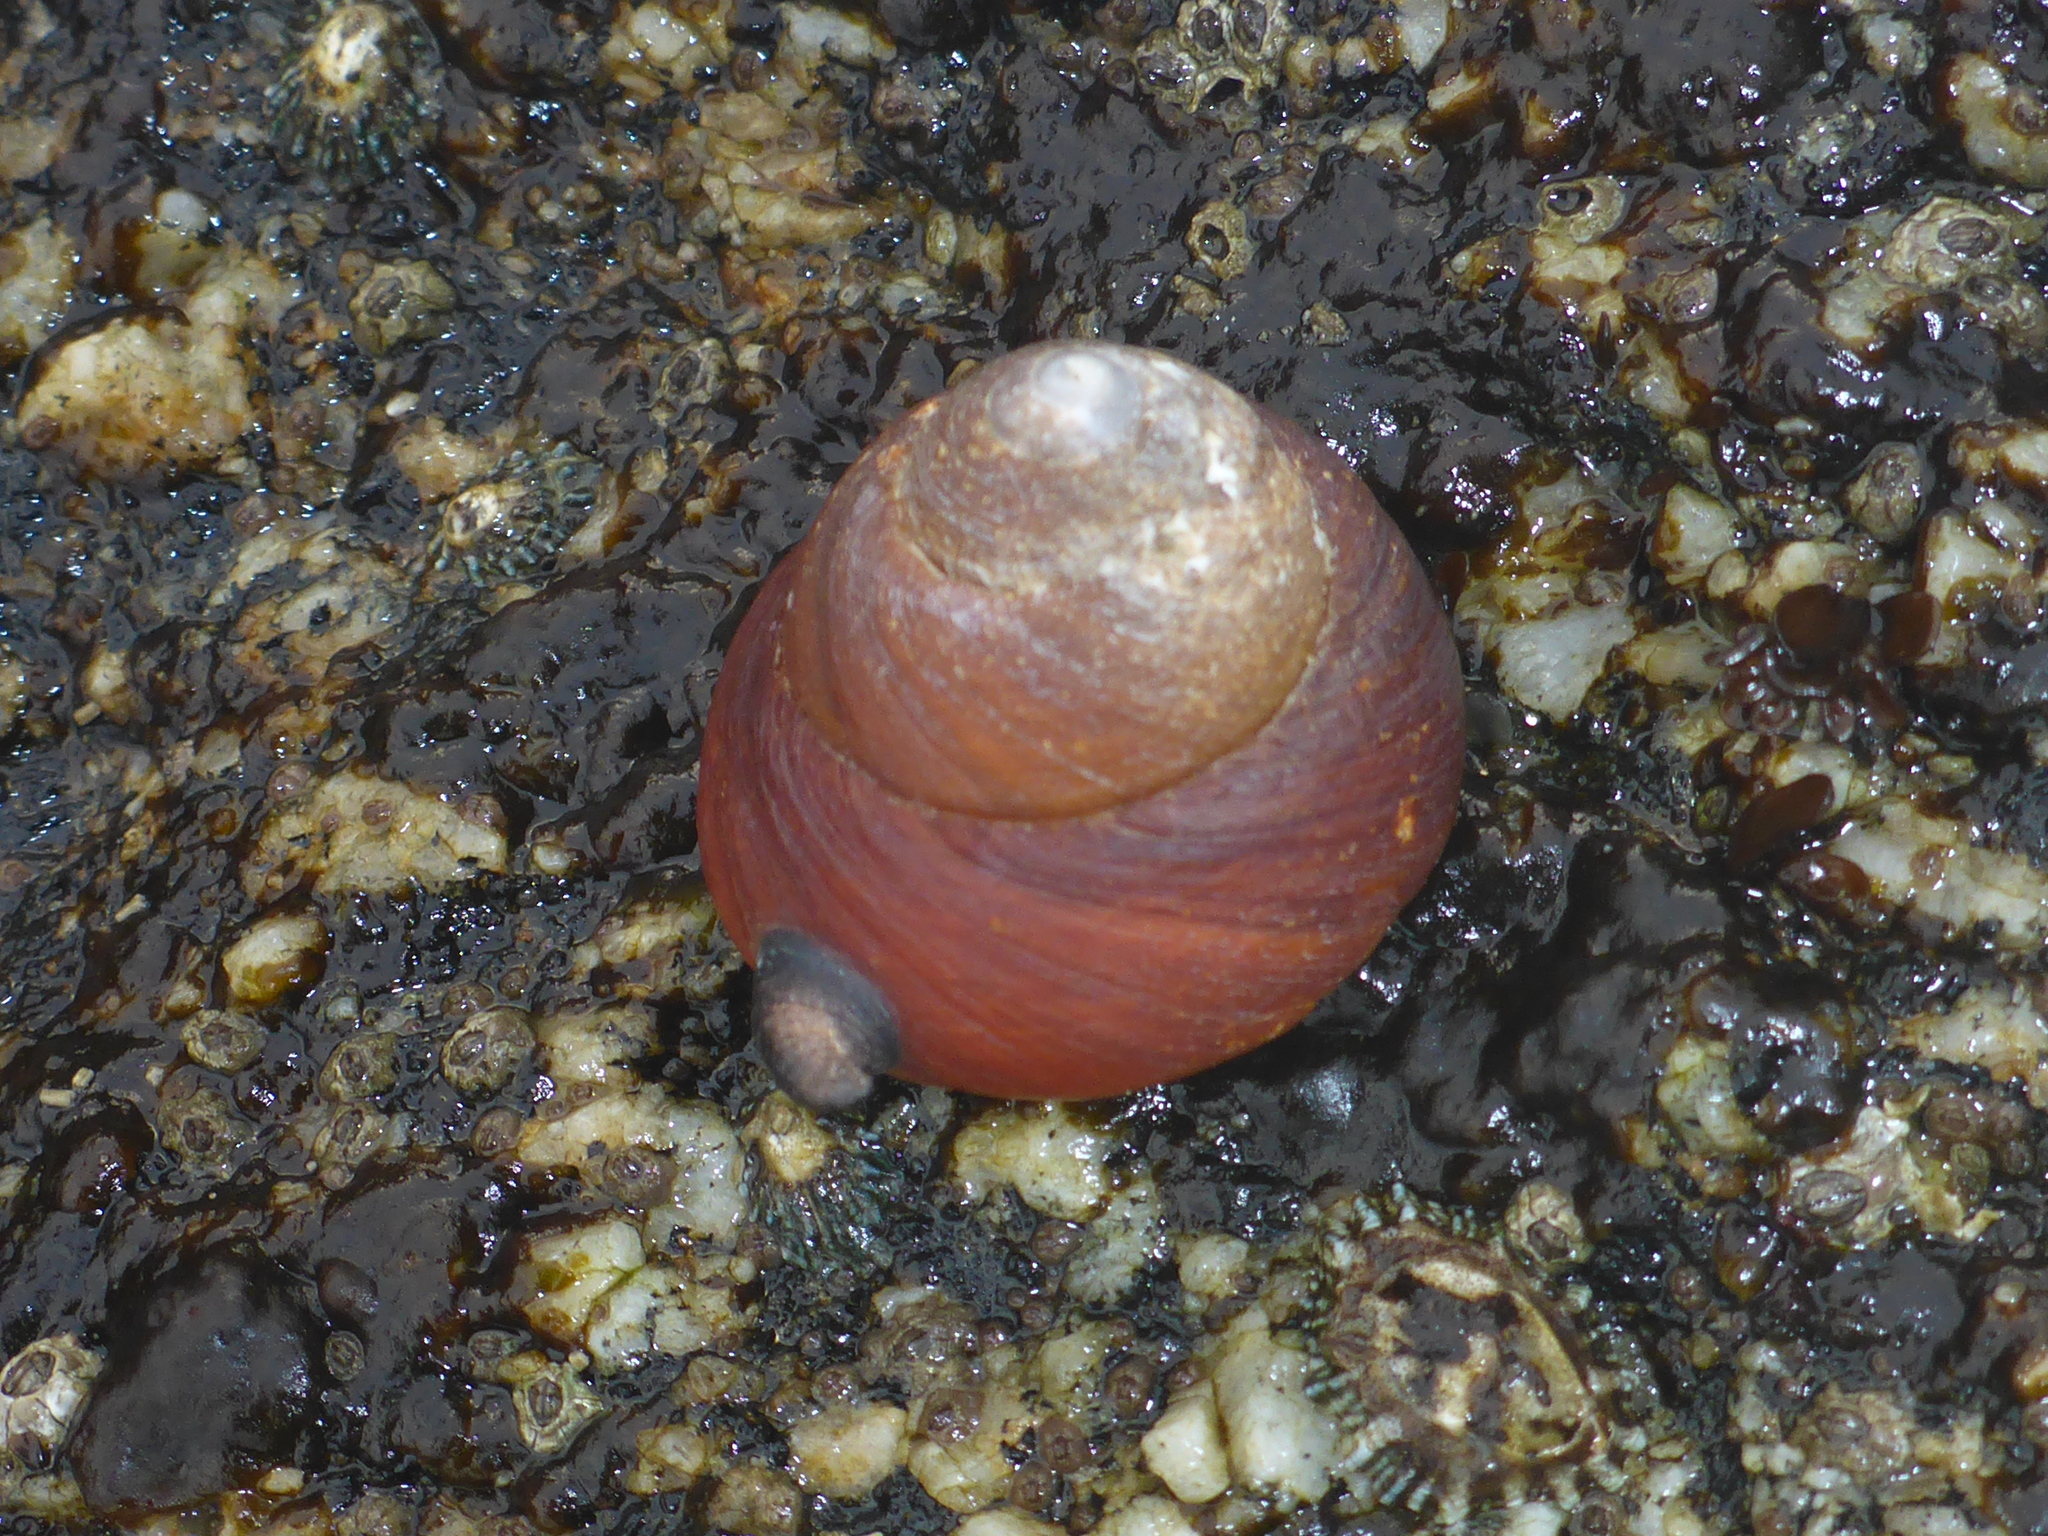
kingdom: Animalia
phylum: Mollusca
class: Gastropoda
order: Trochida
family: Tegulidae
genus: Tegula
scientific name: Tegula brunnea
